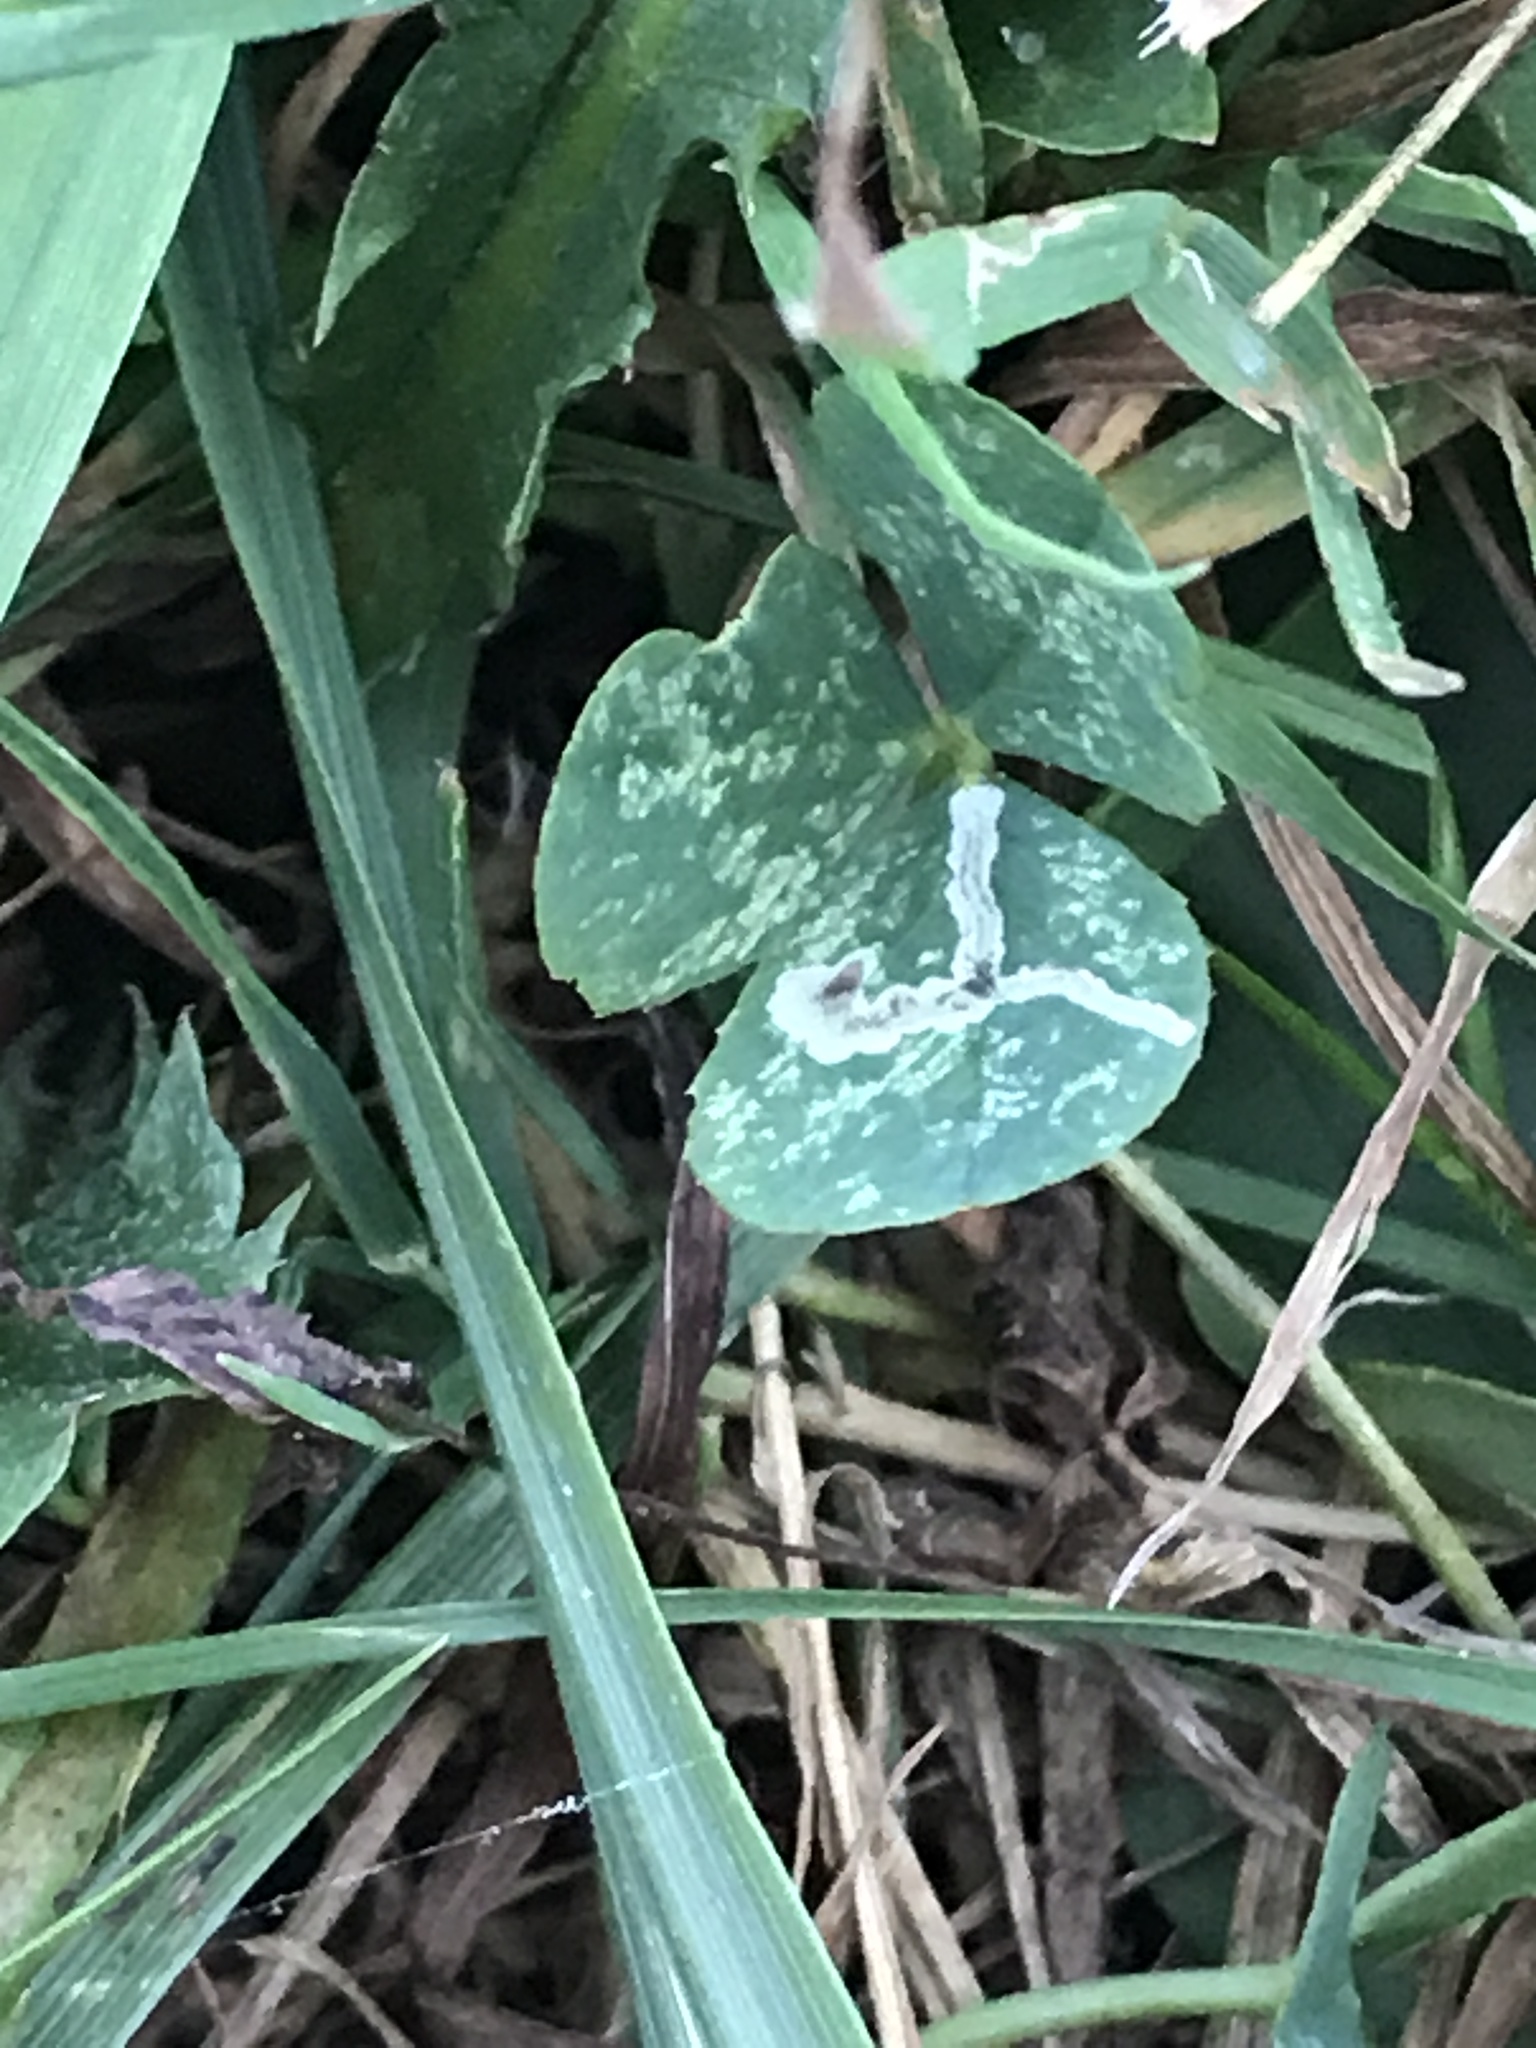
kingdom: Plantae
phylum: Tracheophyta
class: Magnoliopsida
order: Fabales
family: Fabaceae
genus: Trifolium
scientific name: Trifolium repens
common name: White clover
